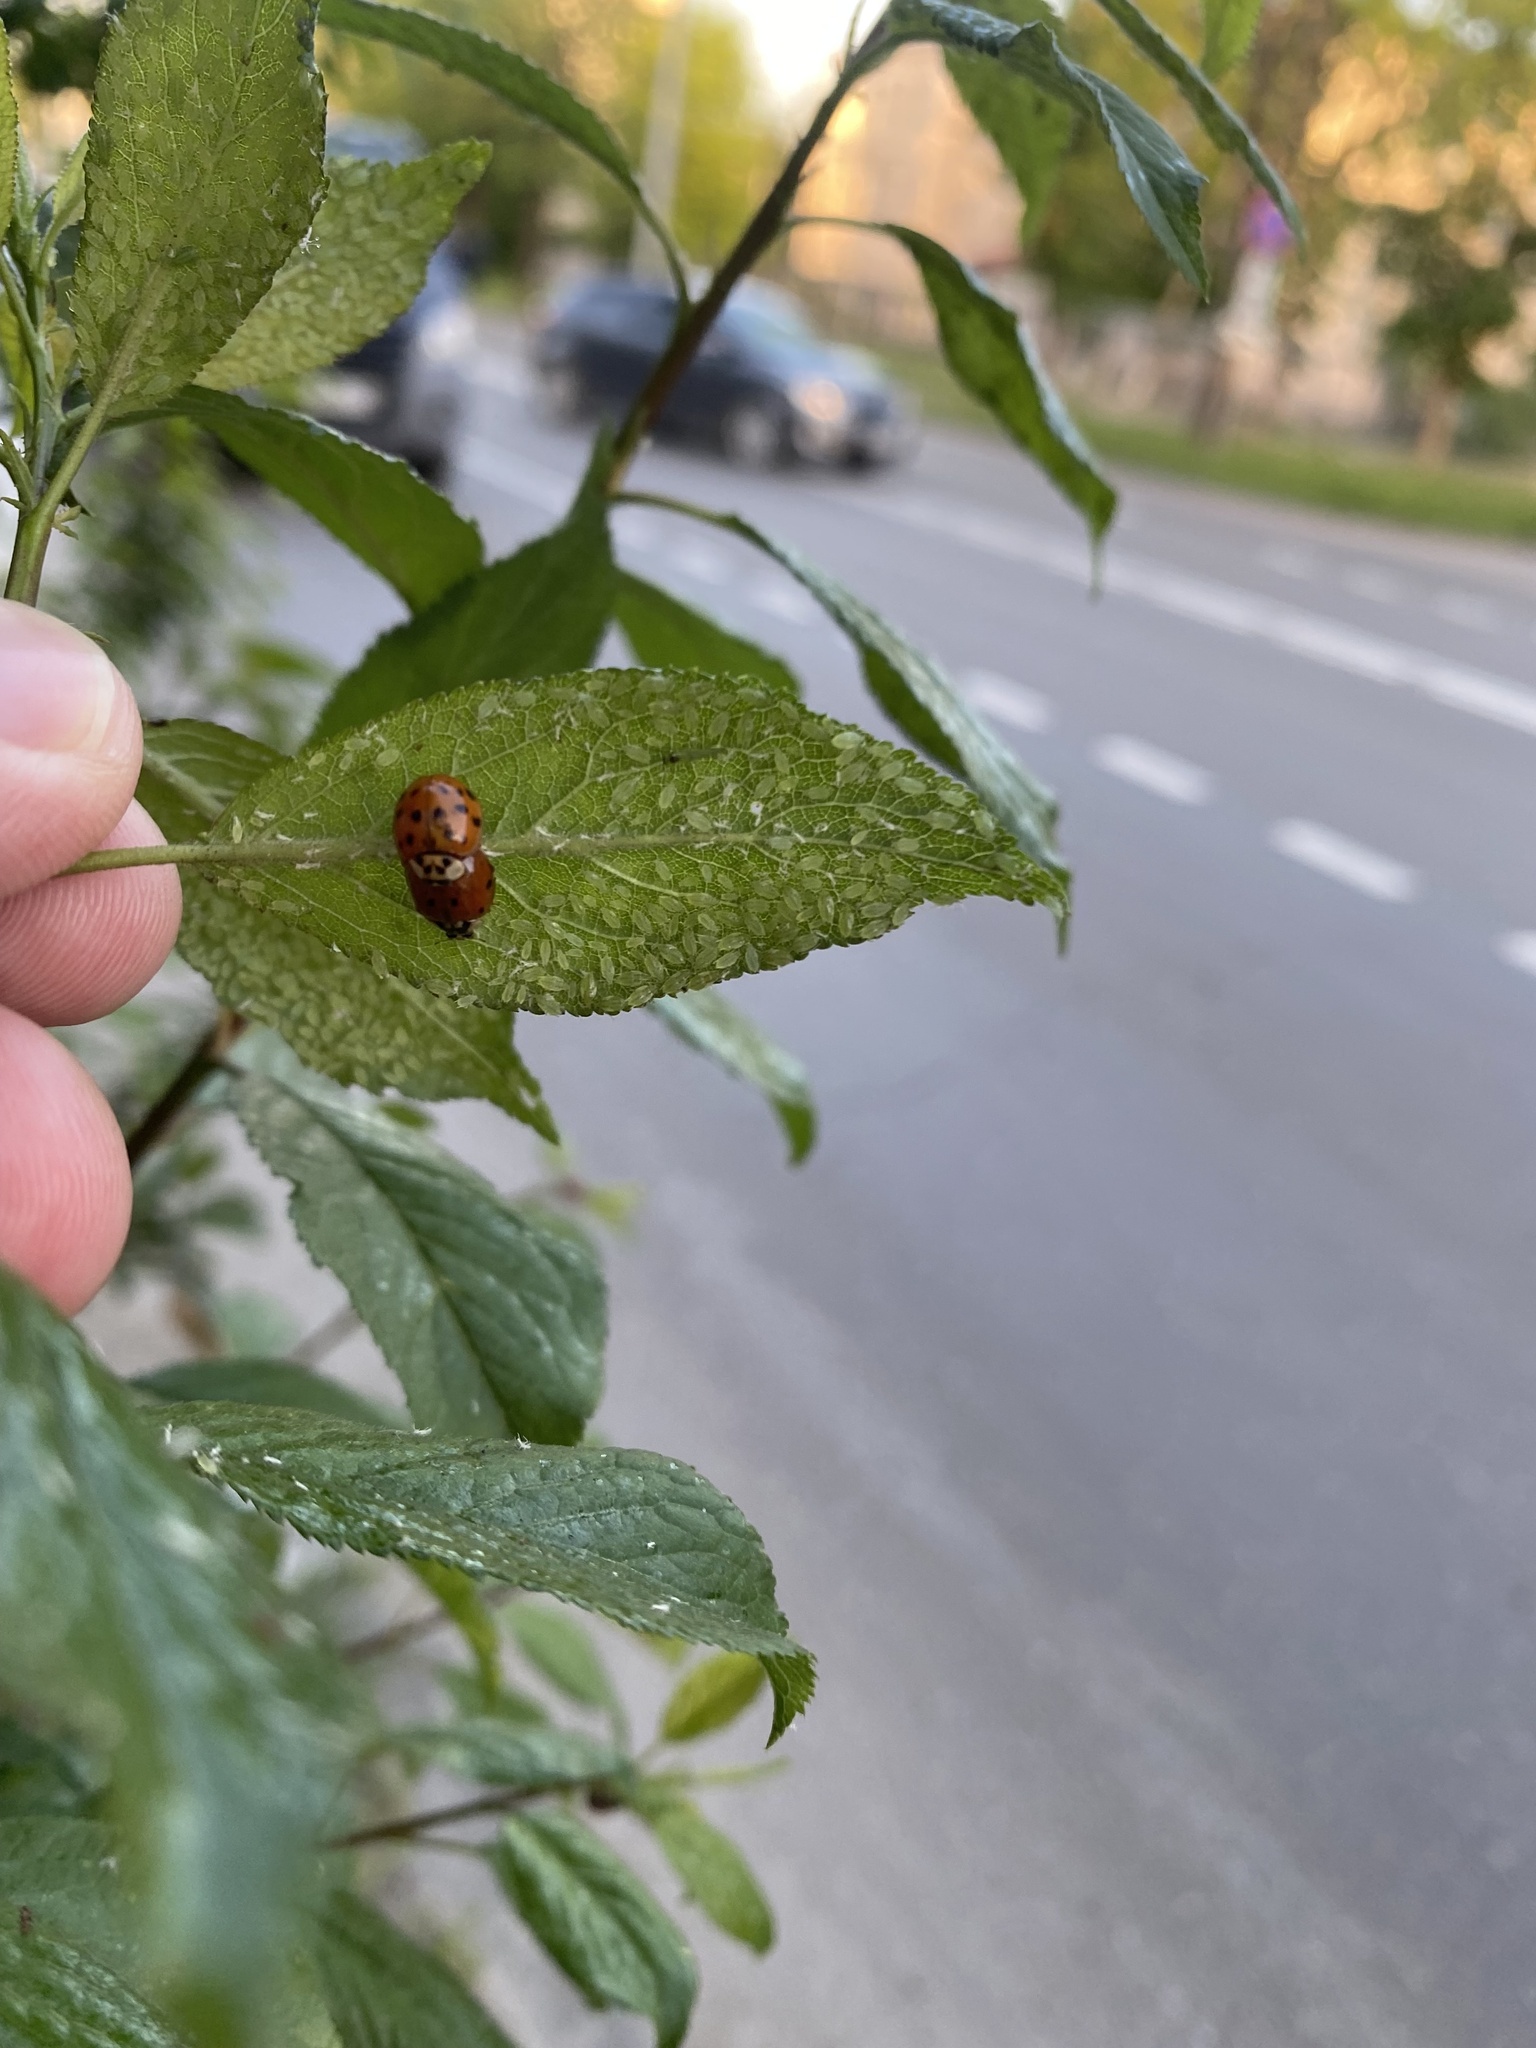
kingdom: Animalia
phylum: Arthropoda
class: Insecta
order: Coleoptera
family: Coccinellidae
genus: Harmonia
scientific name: Harmonia axyridis
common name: Harlequin ladybird
